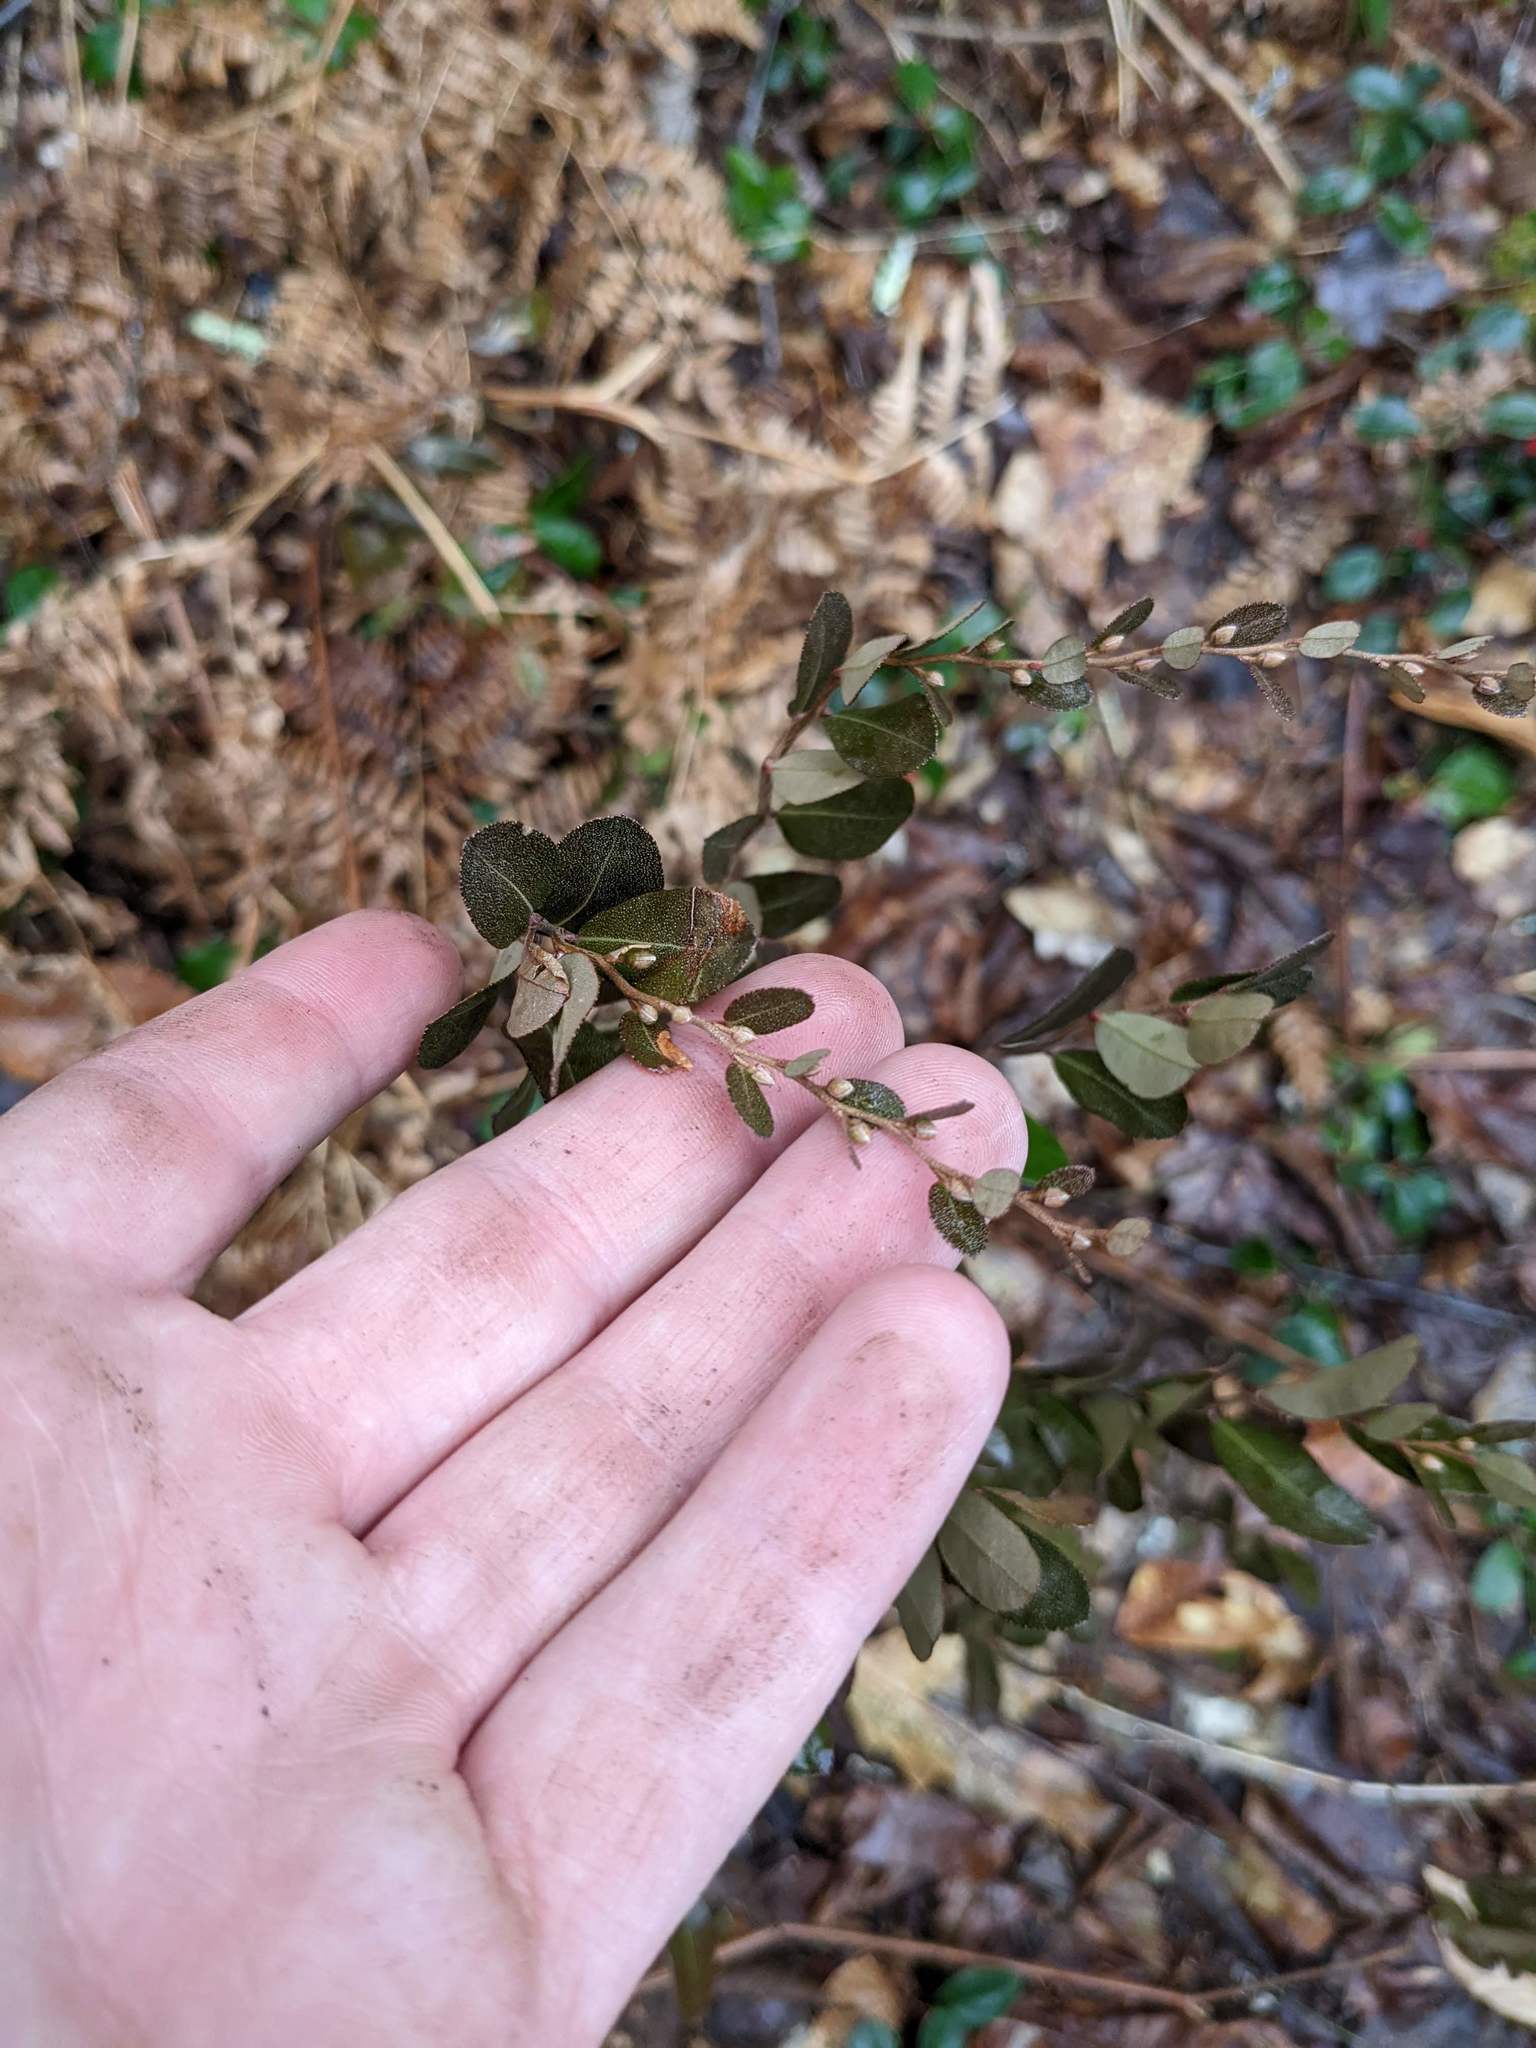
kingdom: Plantae
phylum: Tracheophyta
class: Magnoliopsida
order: Ericales
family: Ericaceae
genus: Chamaedaphne
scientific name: Chamaedaphne calyculata
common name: Leatherleaf
